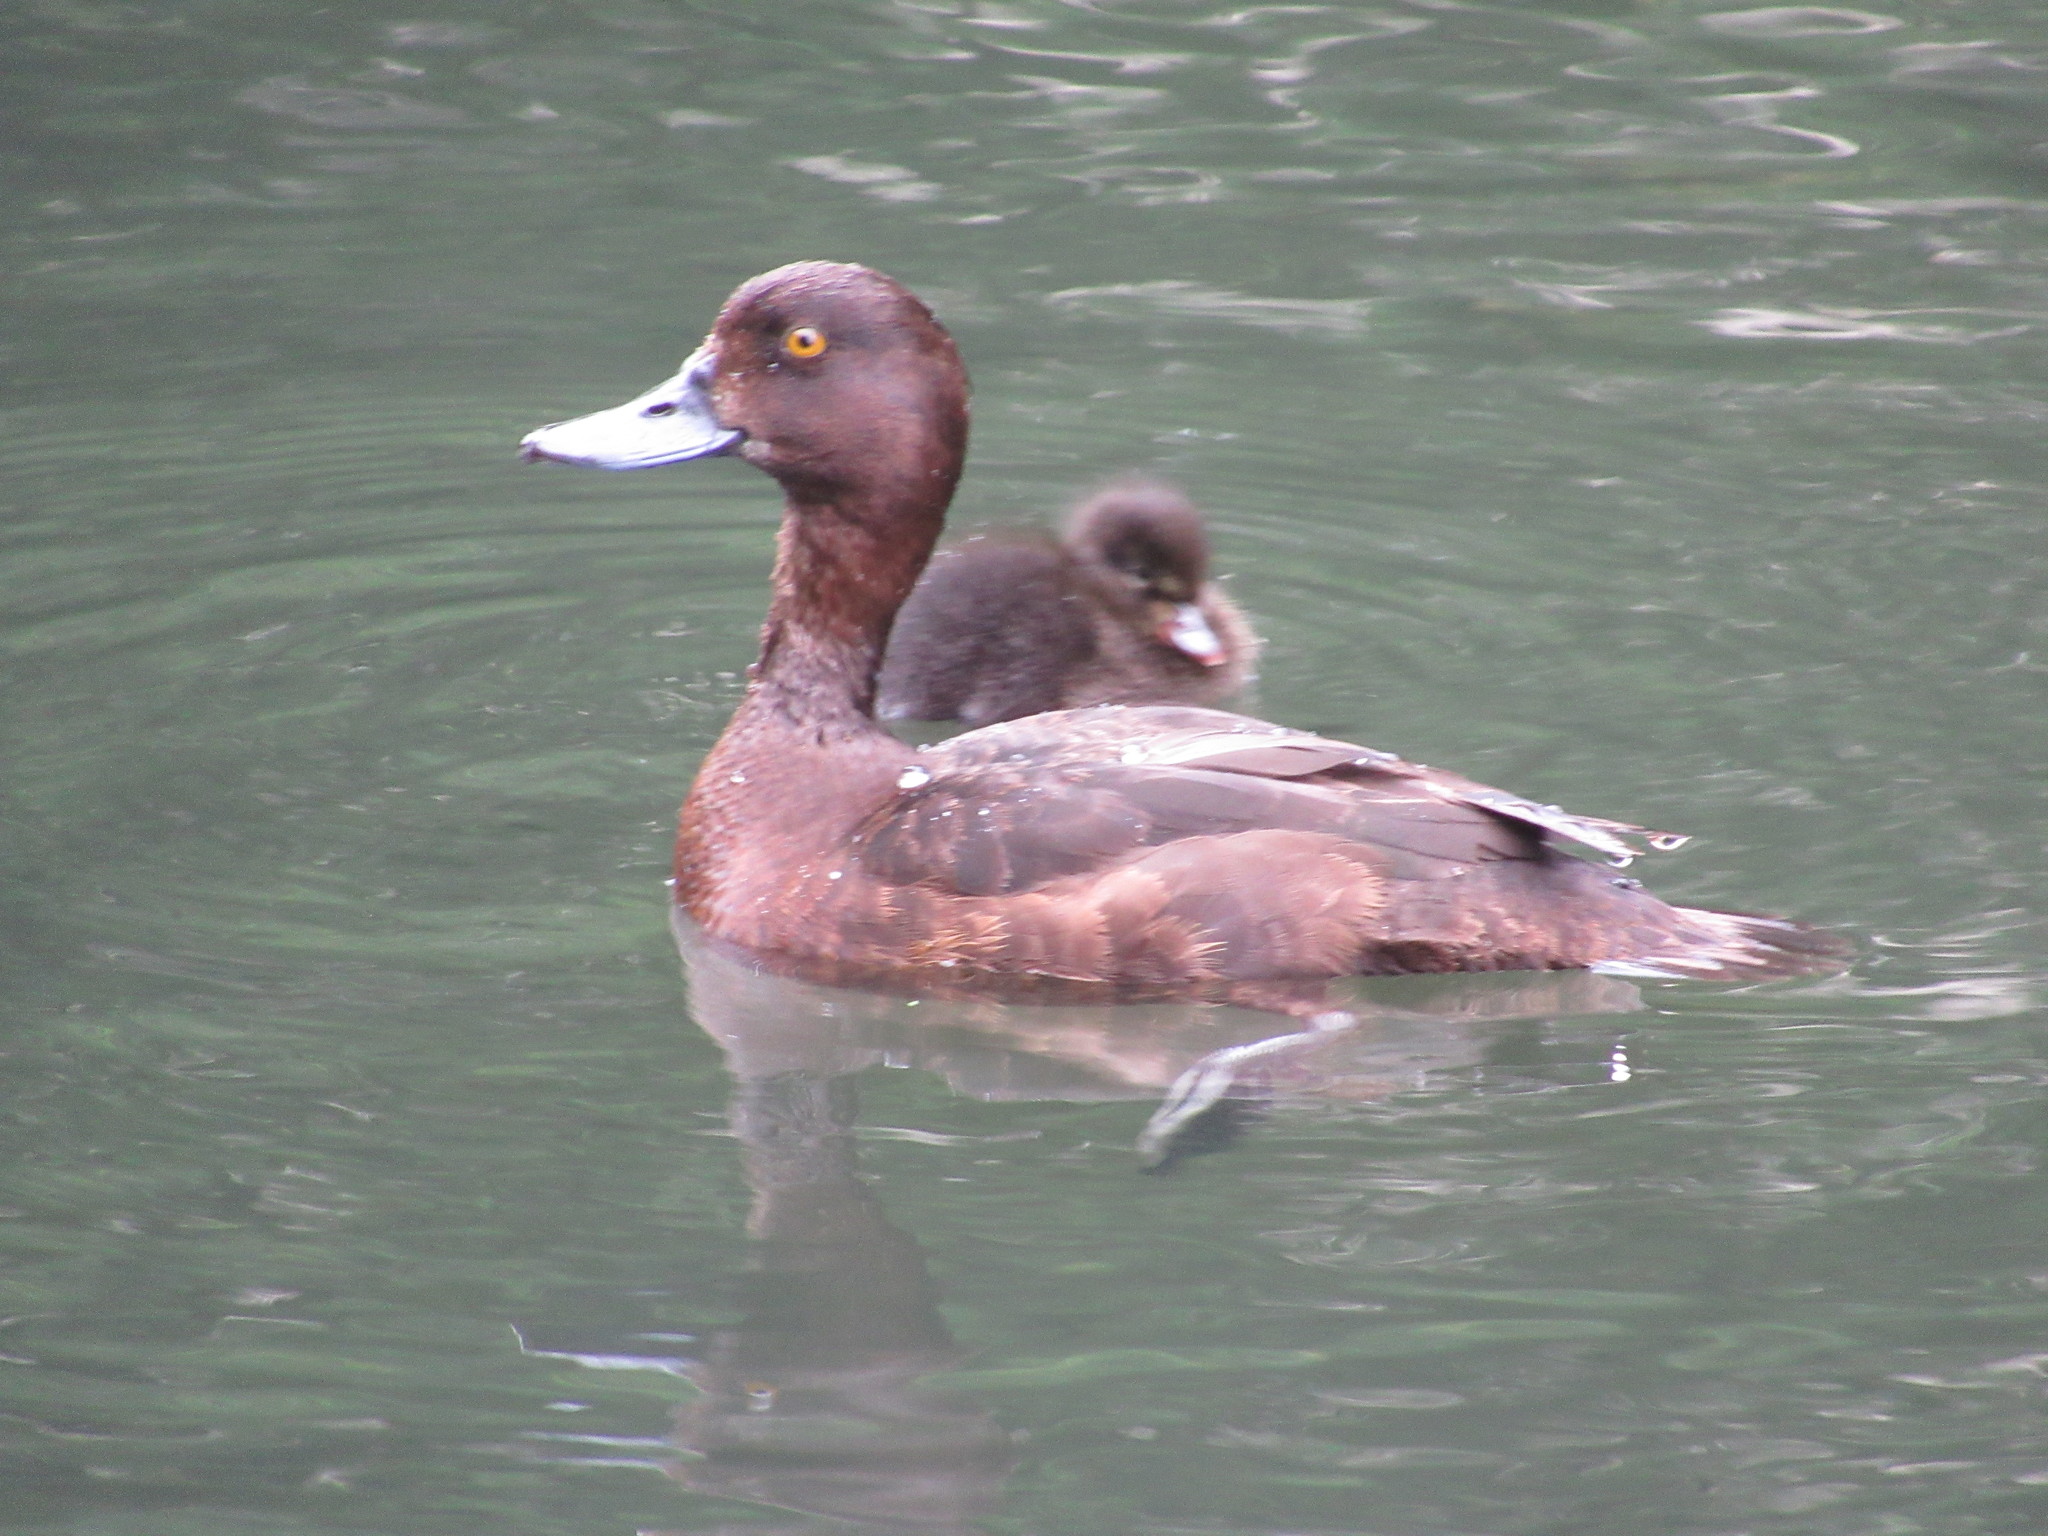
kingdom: Animalia
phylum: Chordata
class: Aves
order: Anseriformes
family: Anatidae
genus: Aythya
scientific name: Aythya fuligula
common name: Tufted duck
